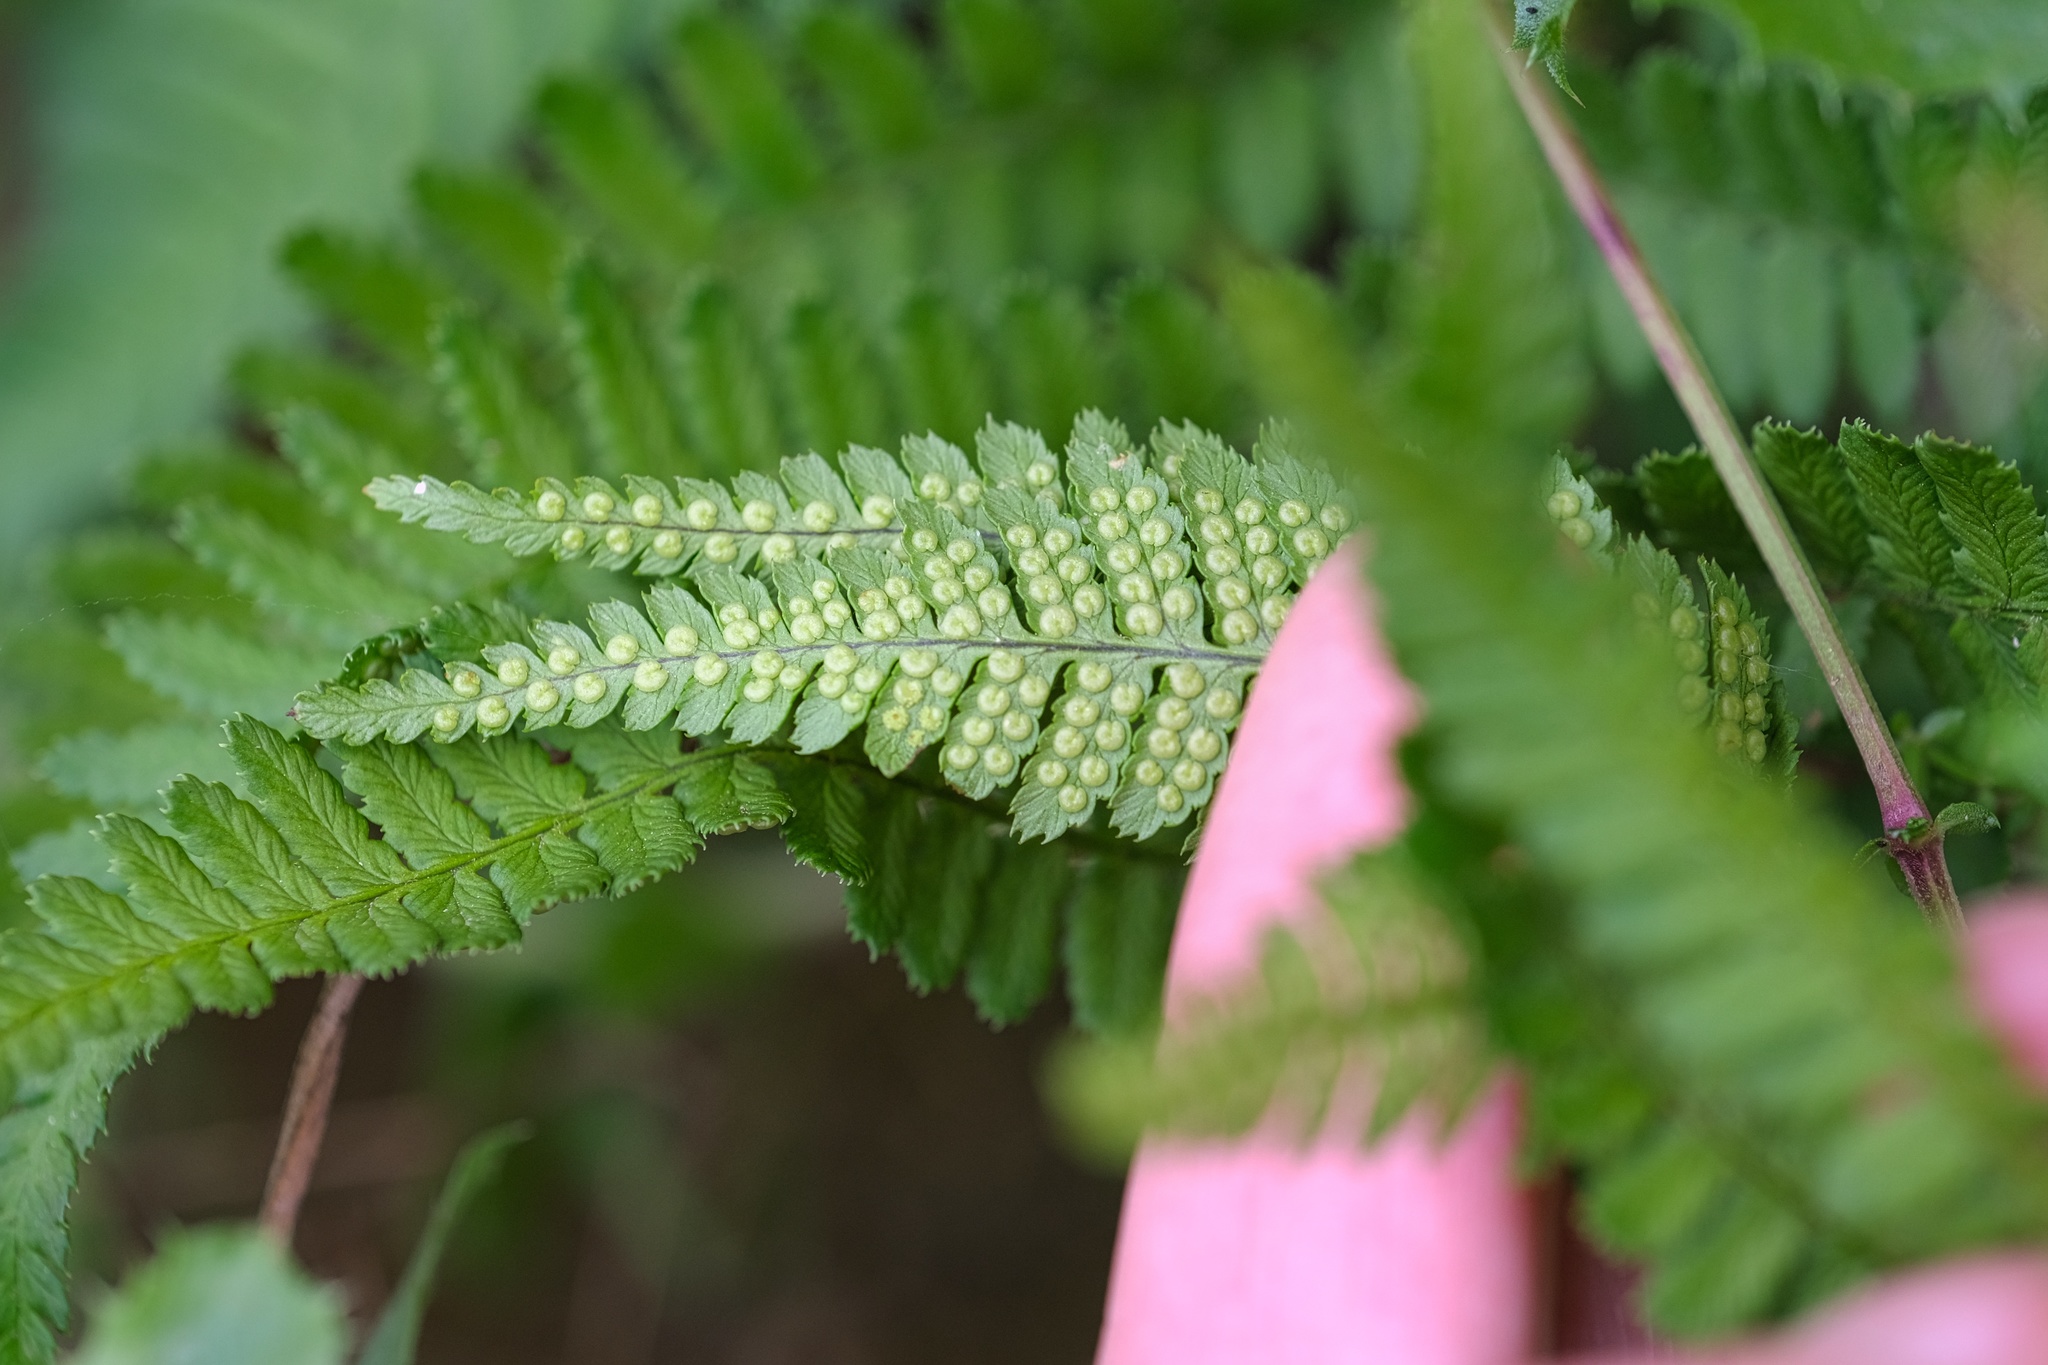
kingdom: Plantae
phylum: Tracheophyta
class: Polypodiopsida
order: Polypodiales
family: Dryopteridaceae
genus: Dryopteris
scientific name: Dryopteris arguta
